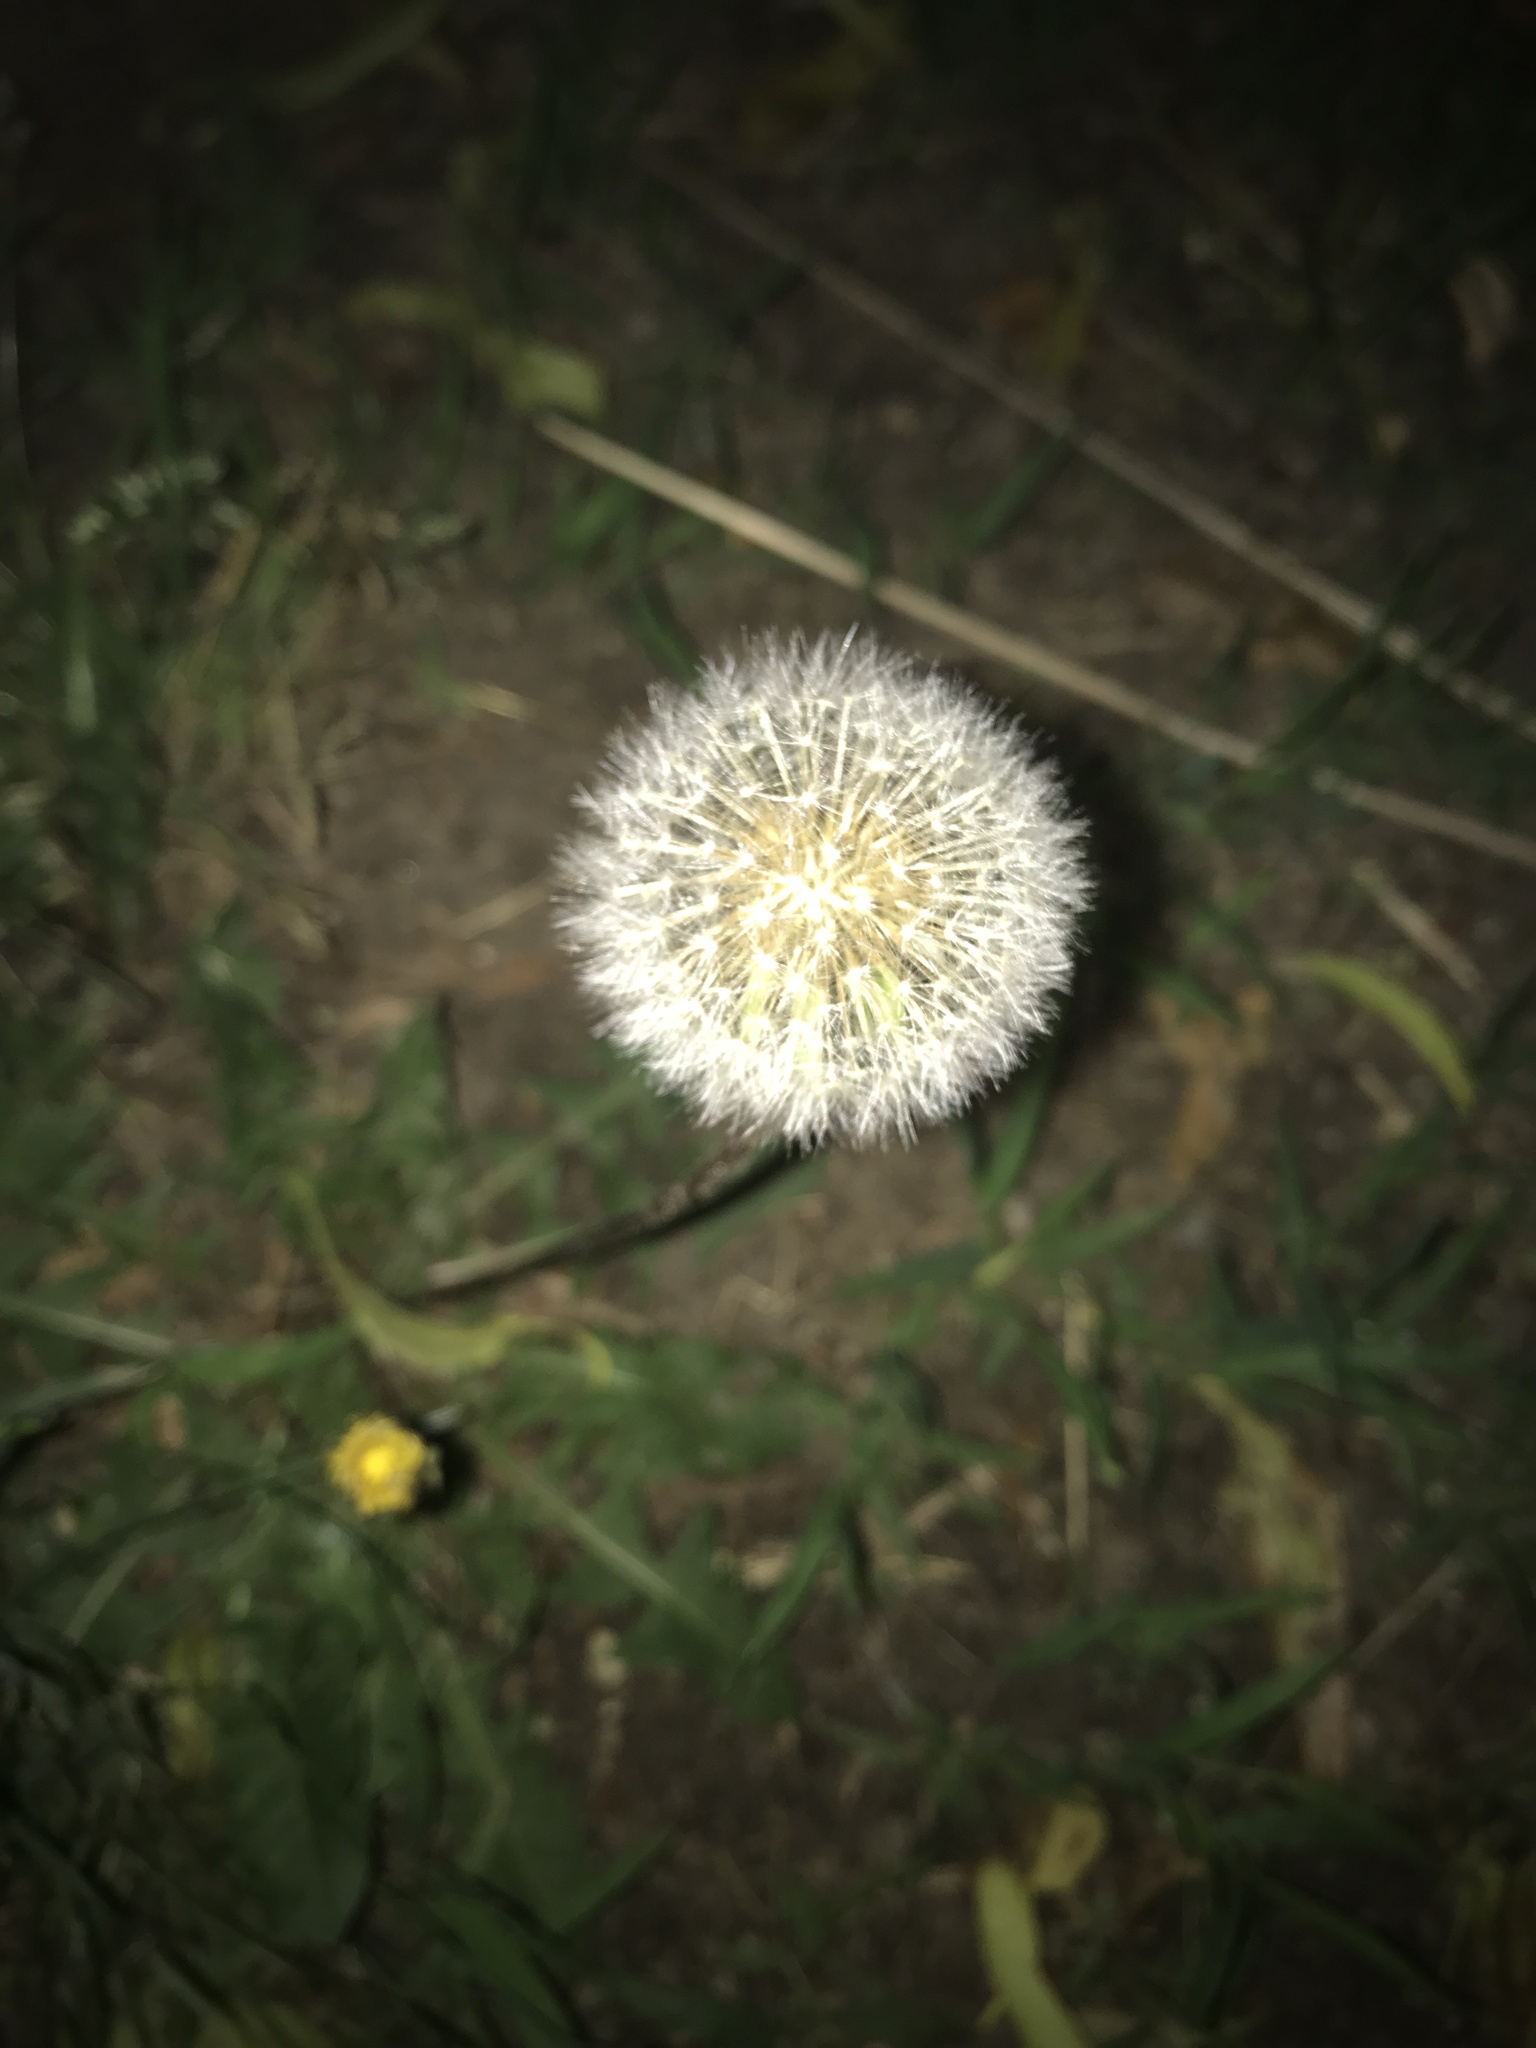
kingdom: Plantae
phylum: Tracheophyta
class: Magnoliopsida
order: Asterales
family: Asteraceae
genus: Taraxacum
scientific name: Taraxacum officinale
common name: Common dandelion
